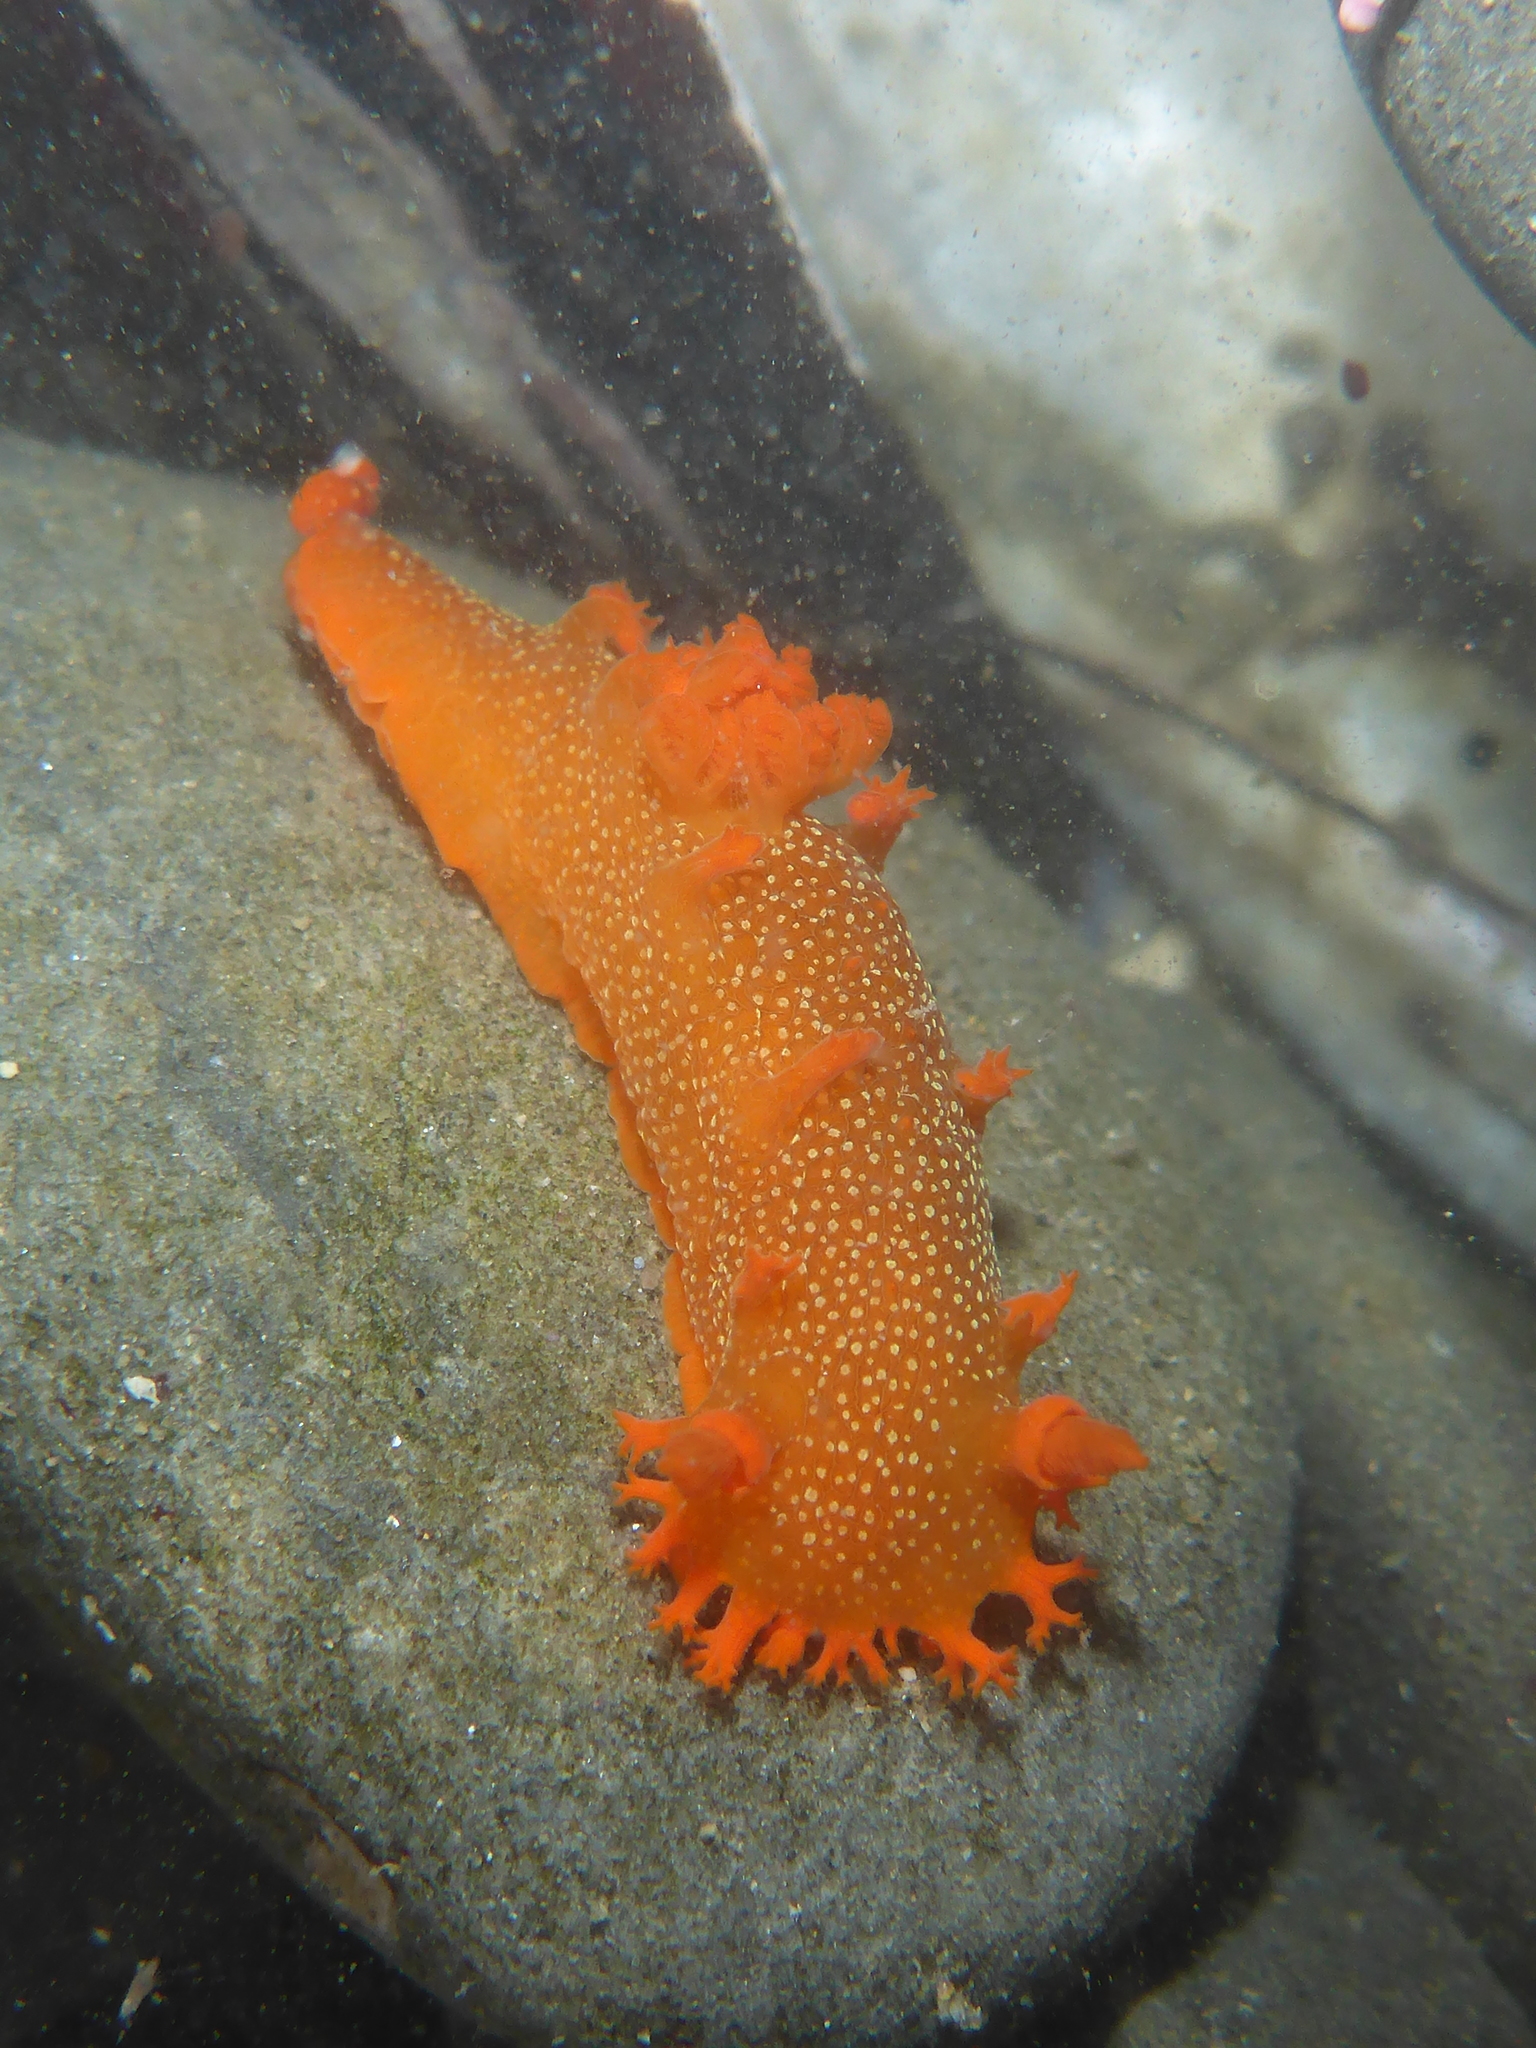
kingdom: Animalia
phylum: Mollusca
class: Gastropoda
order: Nudibranchia
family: Polyceridae
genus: Triopha
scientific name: Triopha maculata
